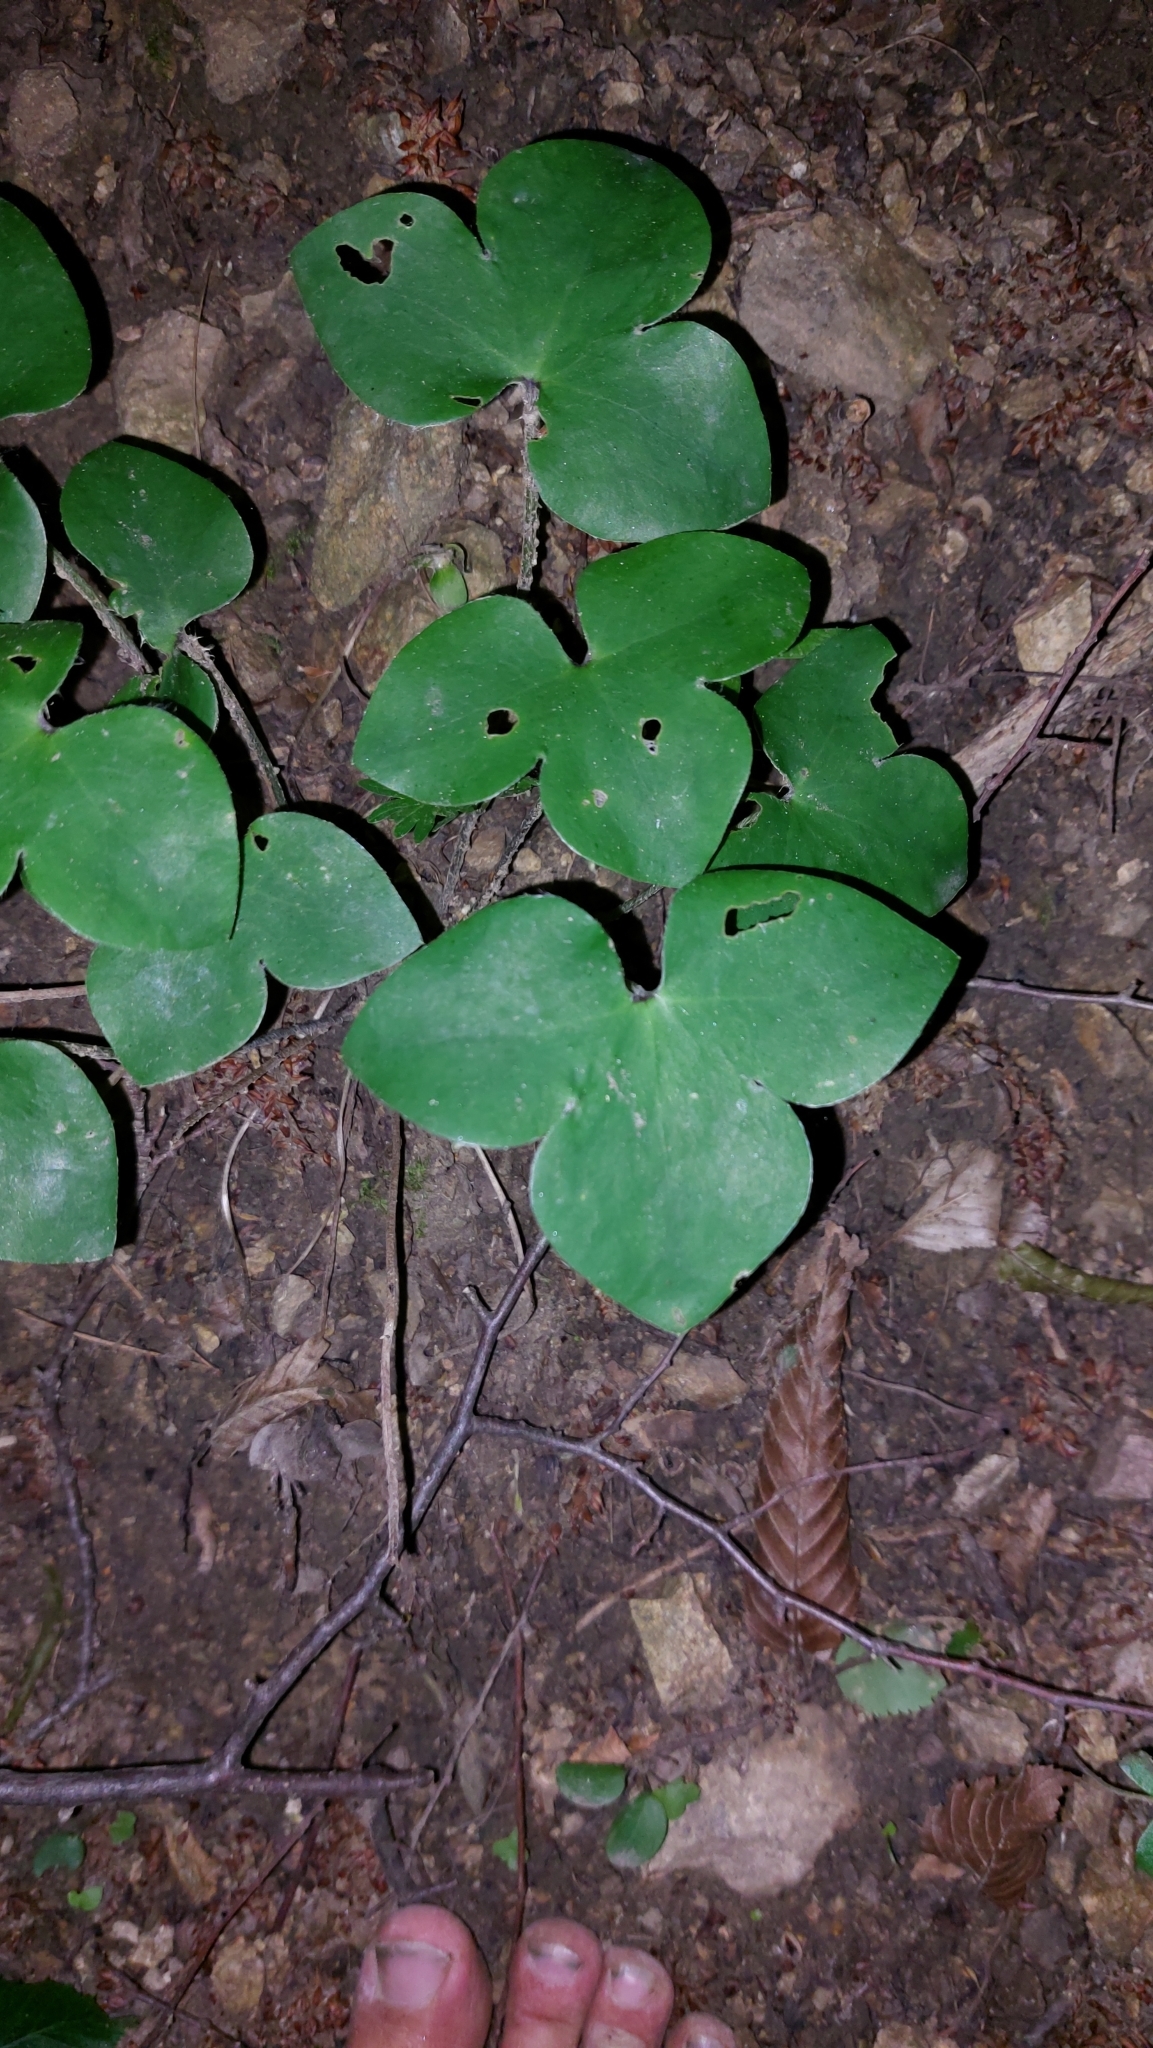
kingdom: Plantae
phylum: Tracheophyta
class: Magnoliopsida
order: Ranunculales
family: Ranunculaceae
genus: Hepatica
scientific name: Hepatica nobilis
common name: Liverleaf
